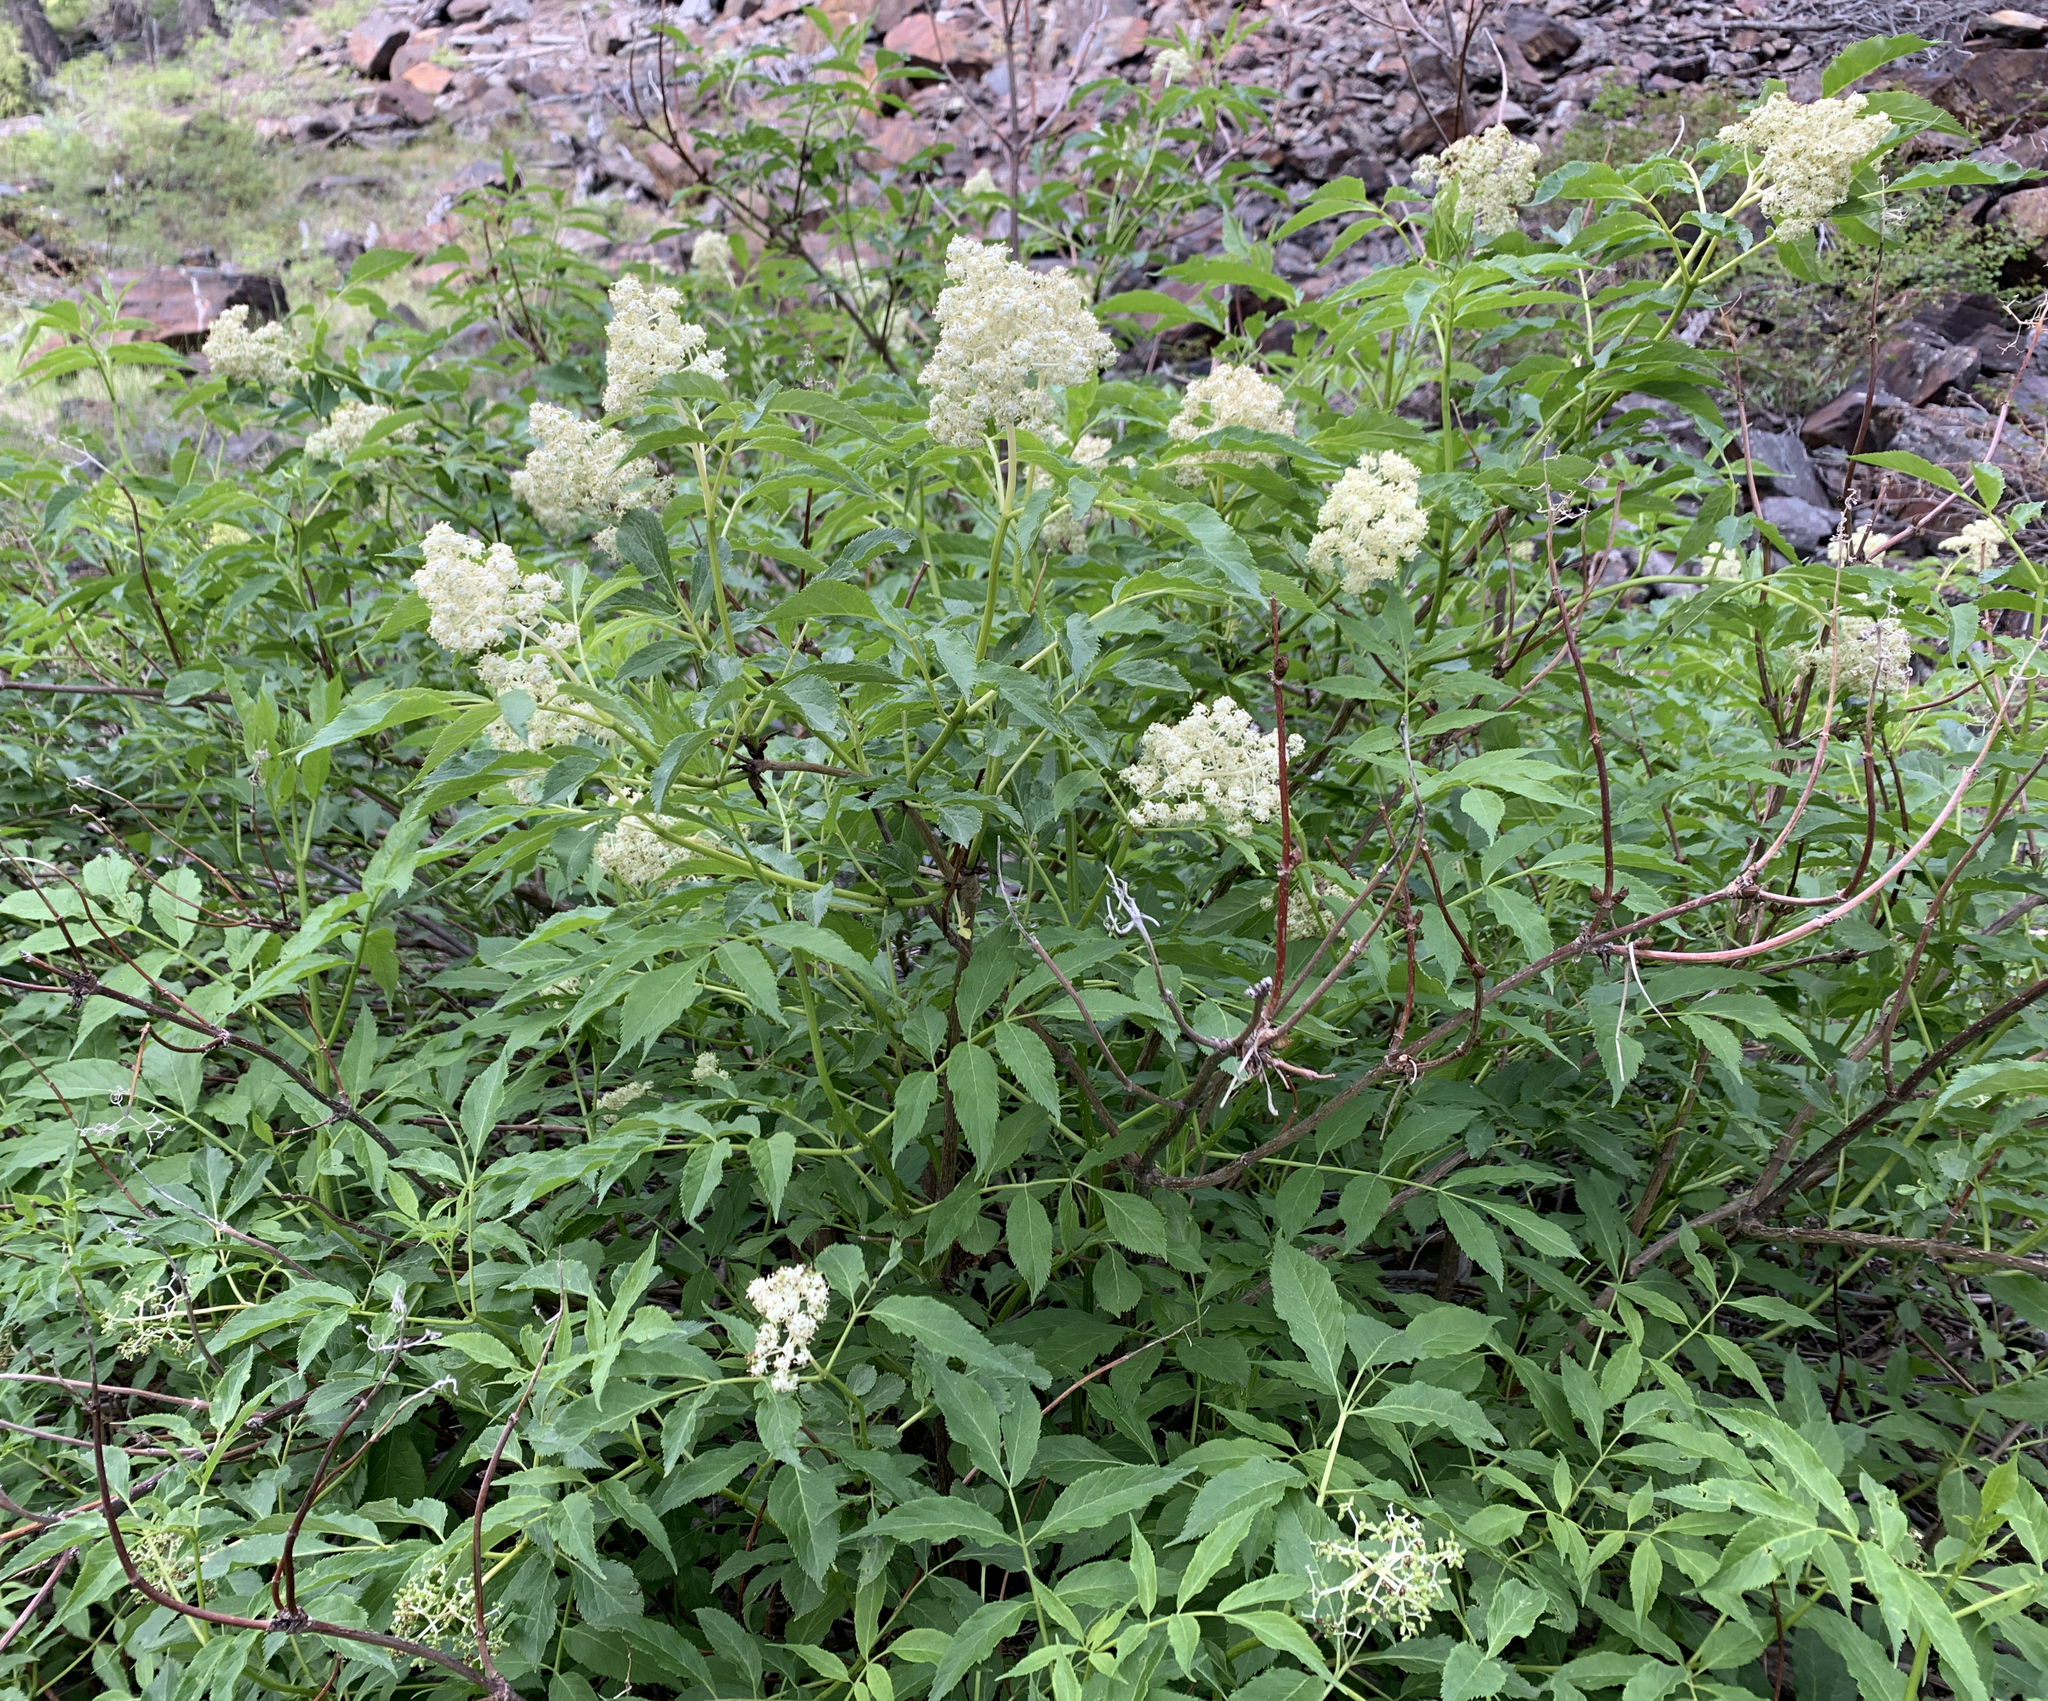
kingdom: Plantae
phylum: Tracheophyta
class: Magnoliopsida
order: Dipsacales
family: Viburnaceae
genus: Sambucus
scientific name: Sambucus racemosa
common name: Red-berried elder
